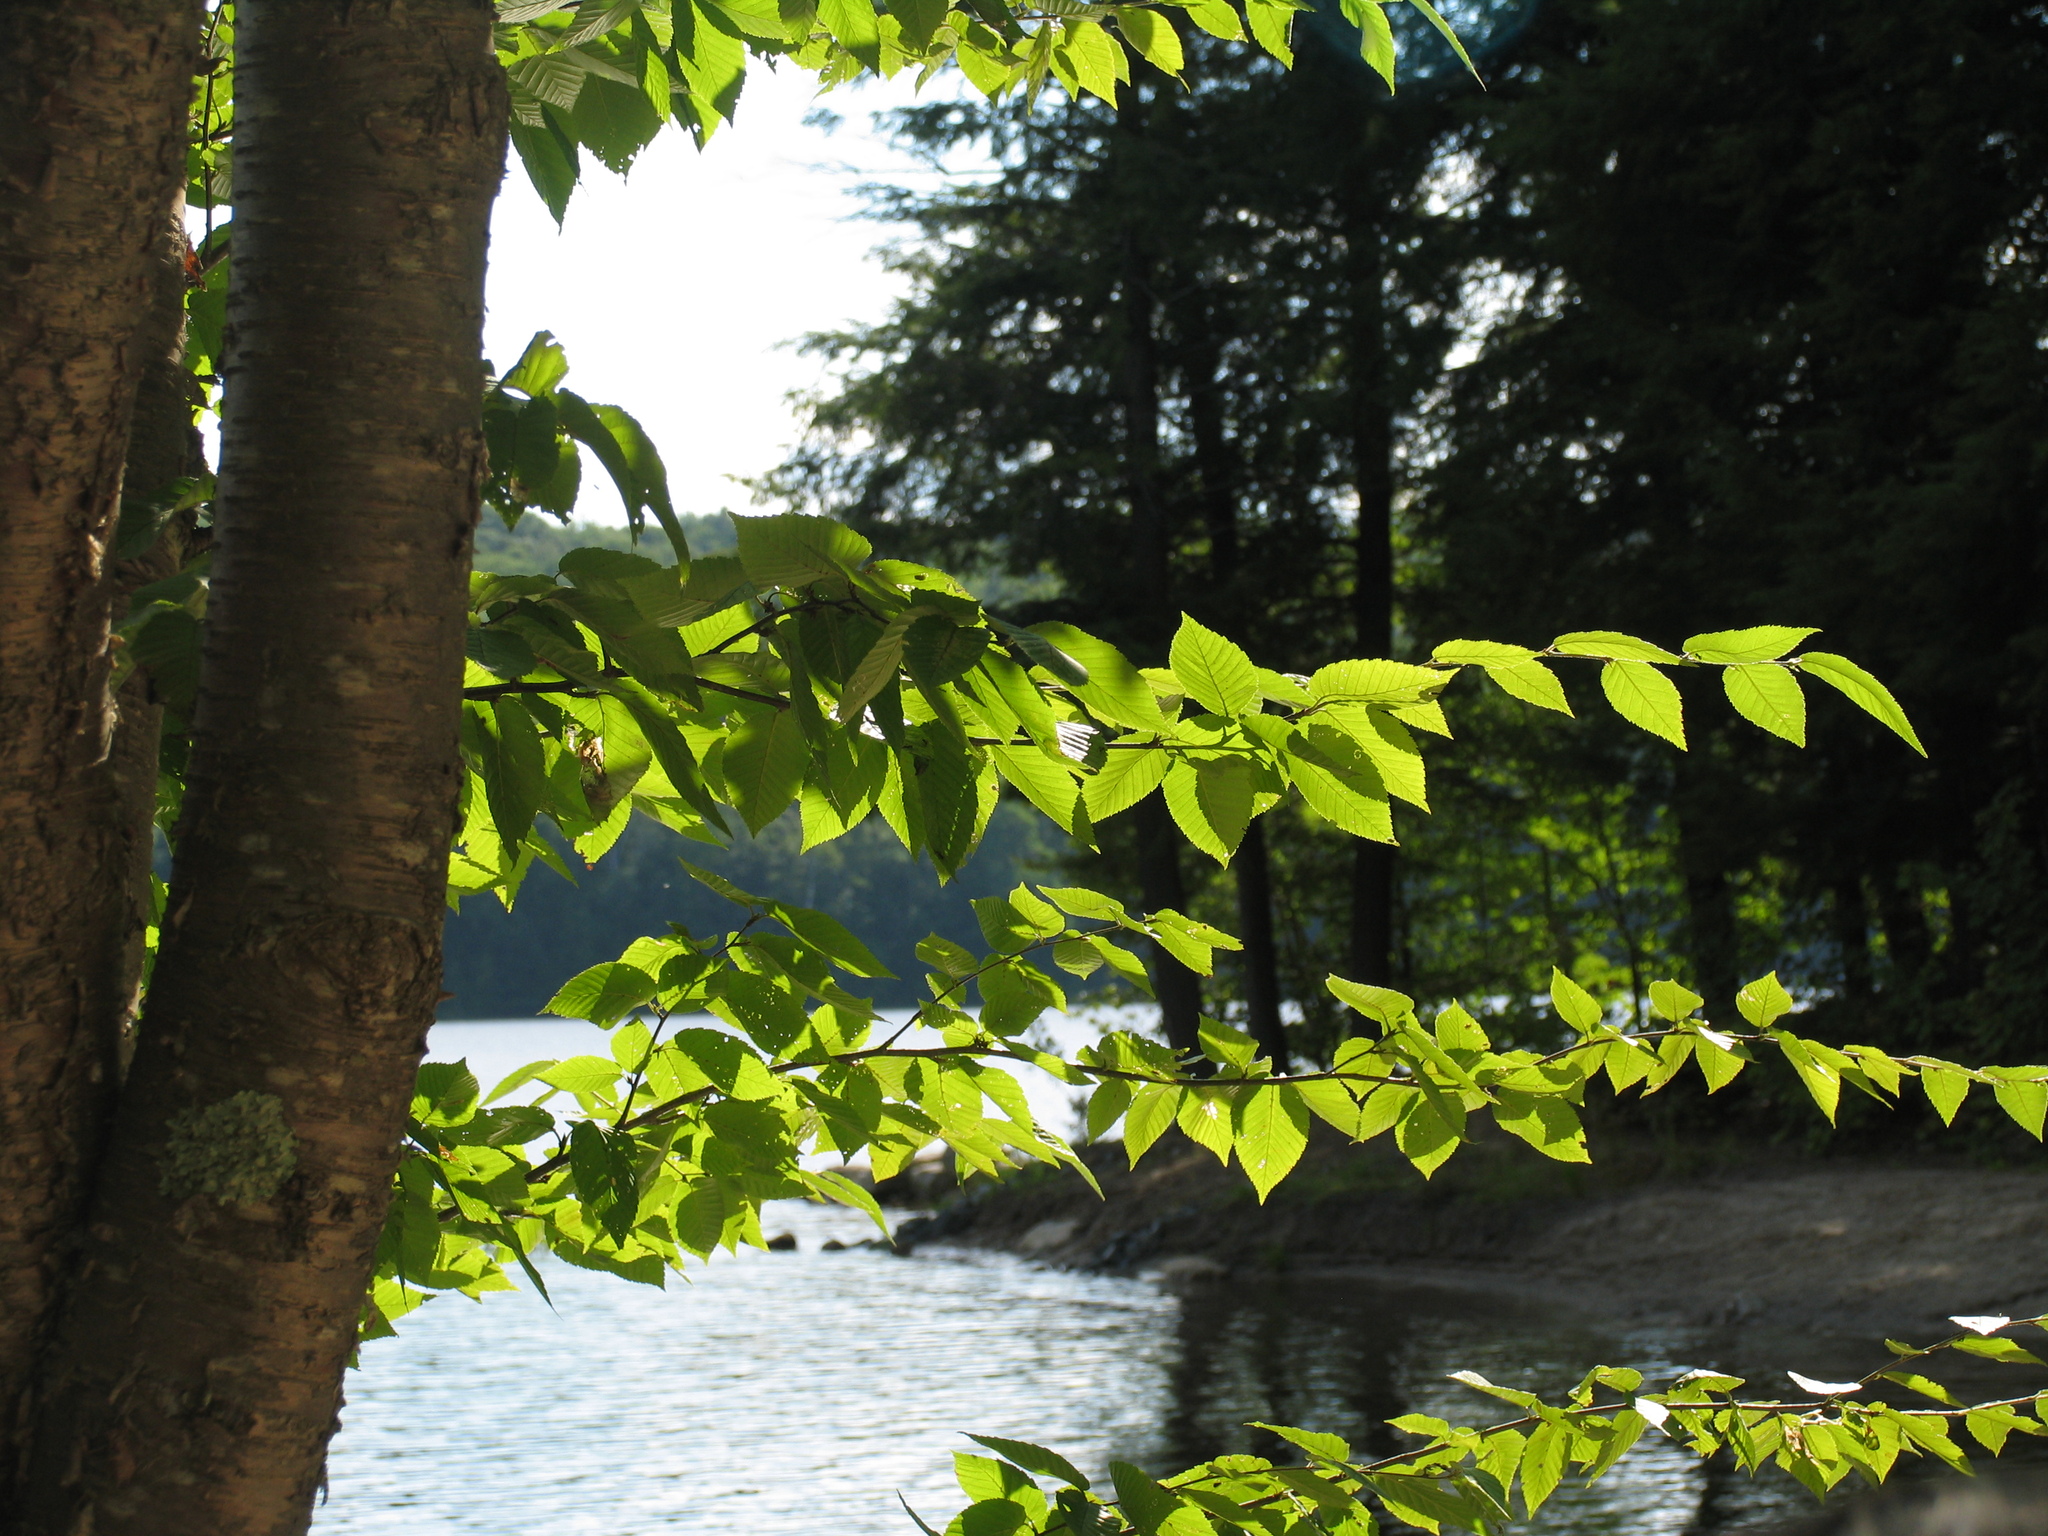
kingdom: Plantae
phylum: Tracheophyta
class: Magnoliopsida
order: Fagales
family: Betulaceae
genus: Betula
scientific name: Betula alleghaniensis
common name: Yellow birch
